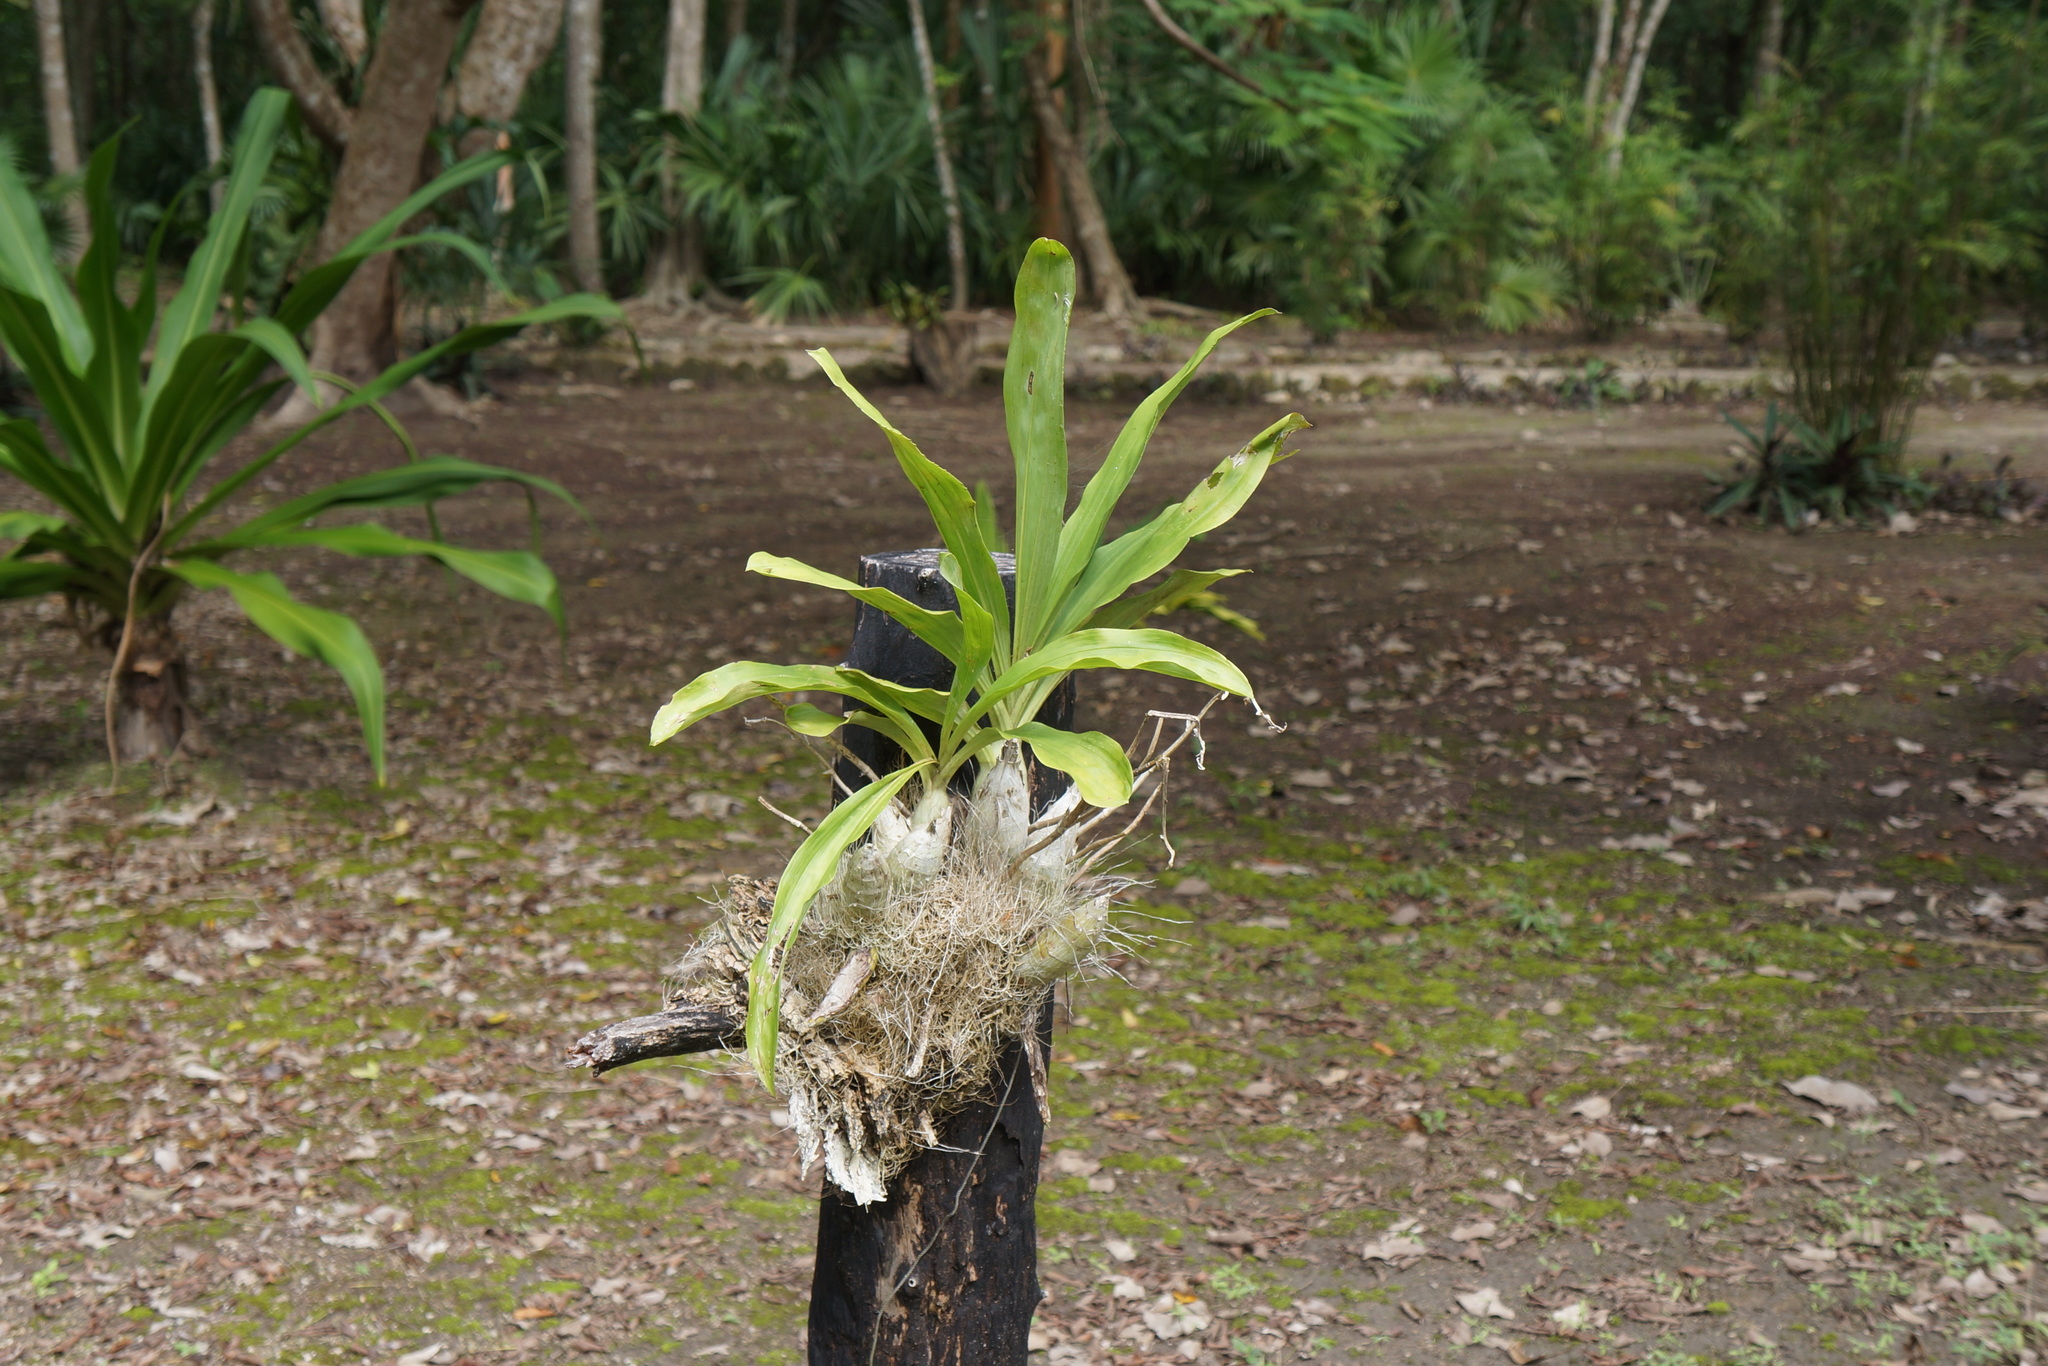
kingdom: Plantae
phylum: Tracheophyta
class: Liliopsida
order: Asparagales
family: Orchidaceae
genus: Catasetum
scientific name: Catasetum integerrimum
